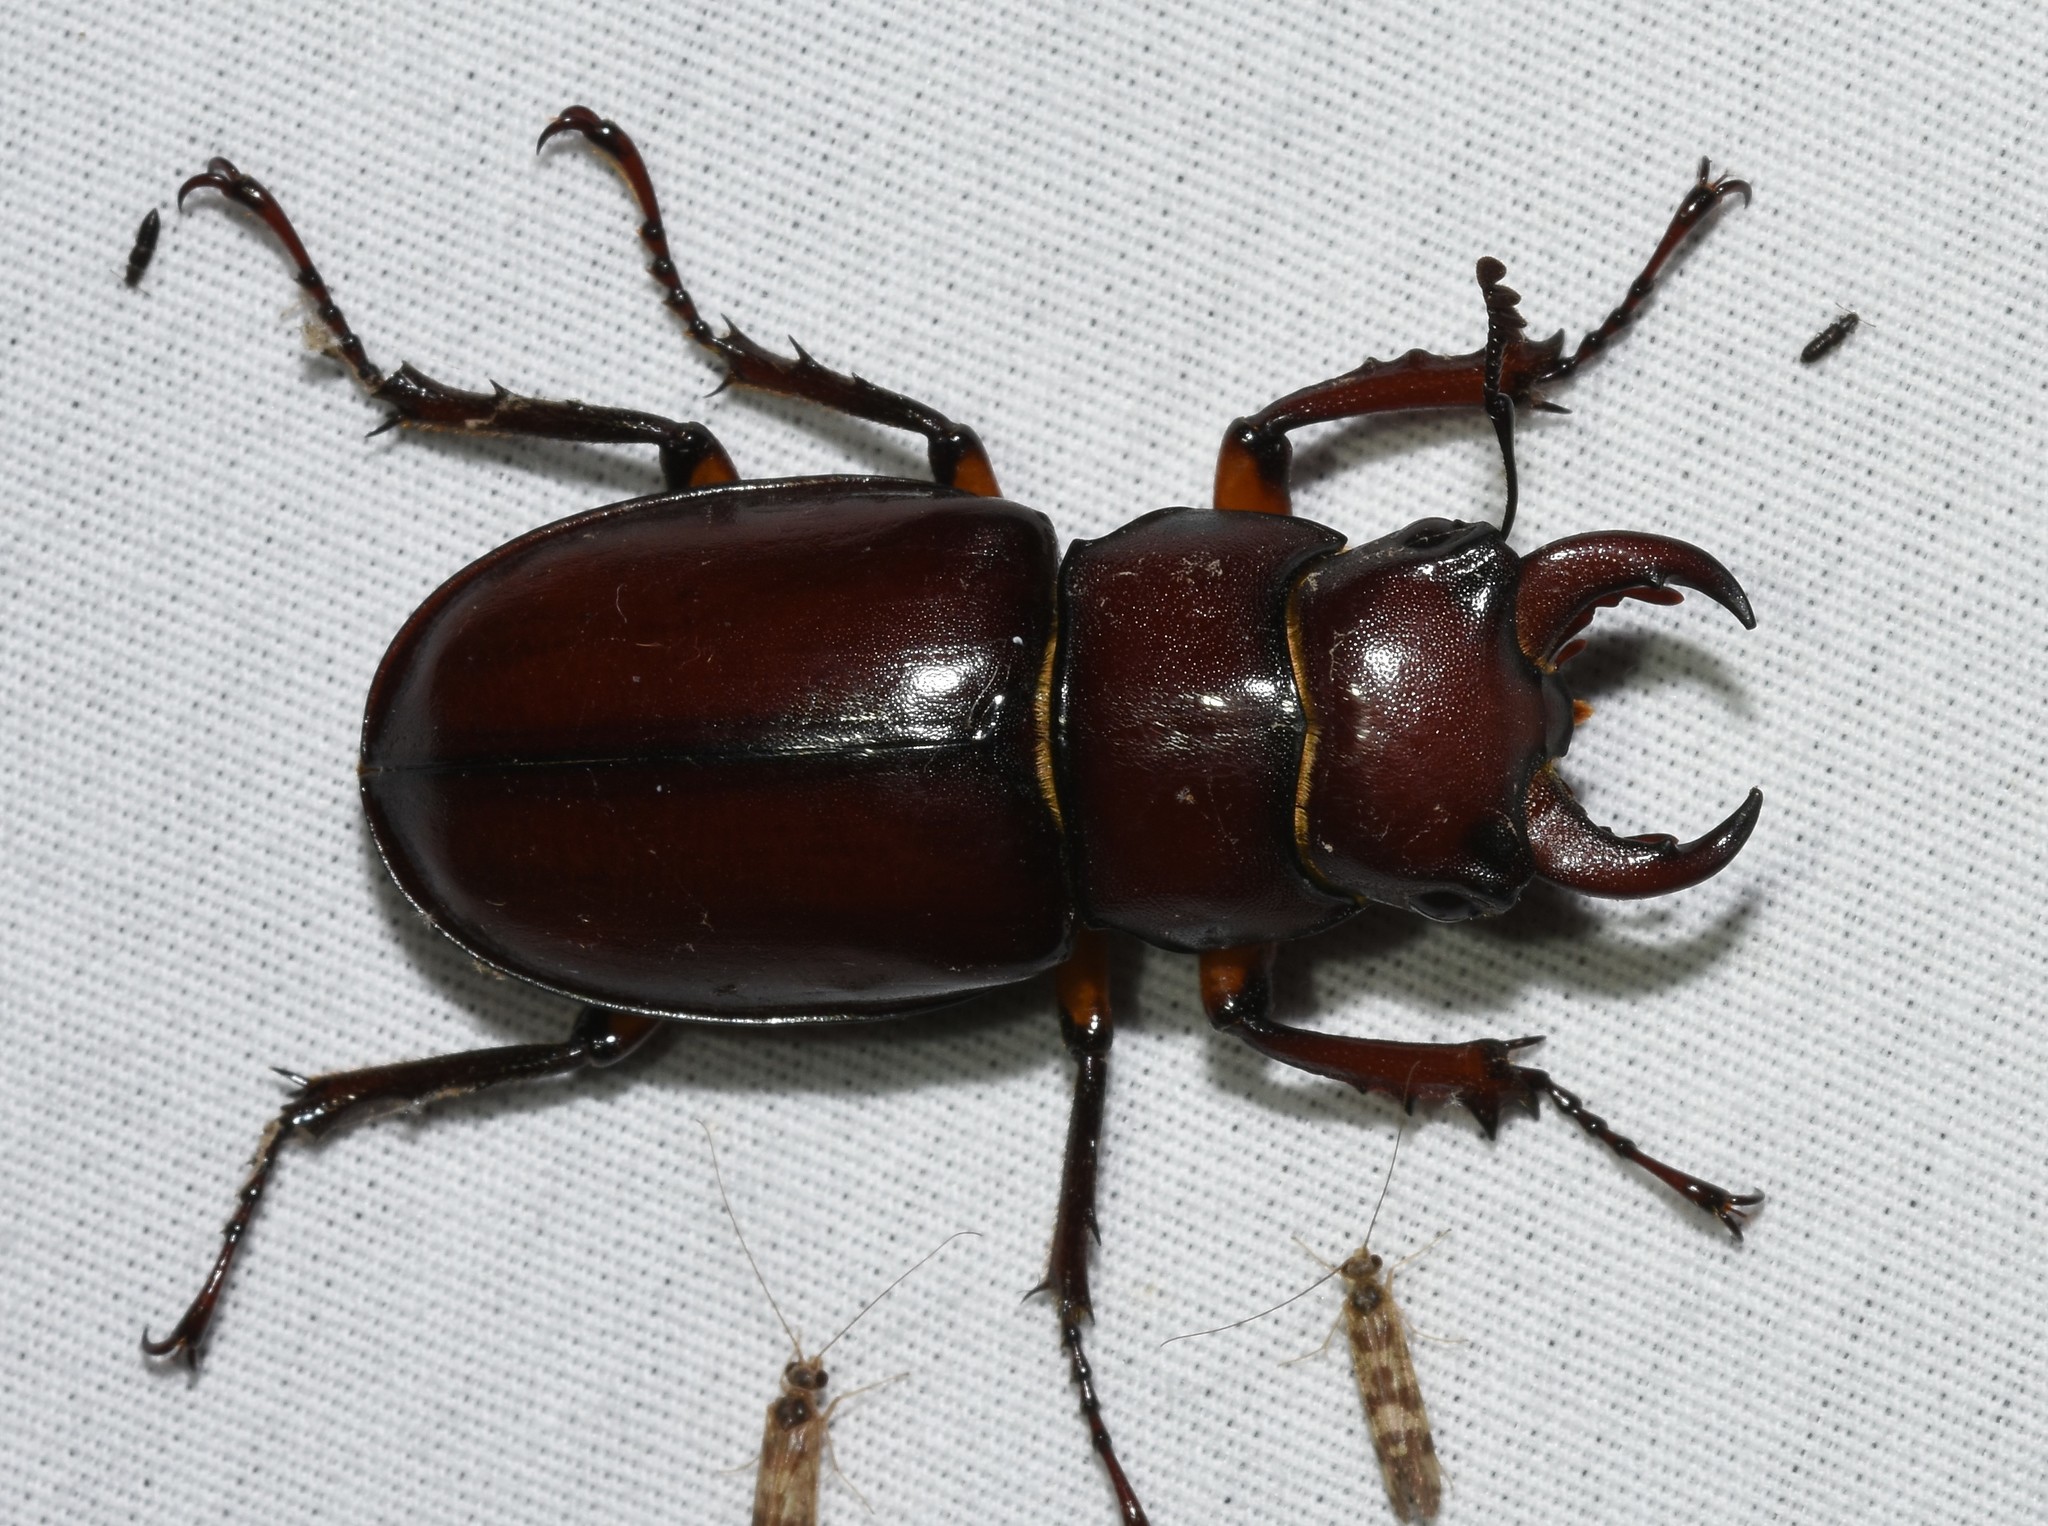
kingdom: Animalia
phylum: Arthropoda
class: Insecta
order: Coleoptera
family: Lucanidae
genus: Lucanus
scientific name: Lucanus capreolus
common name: Stag beetle
